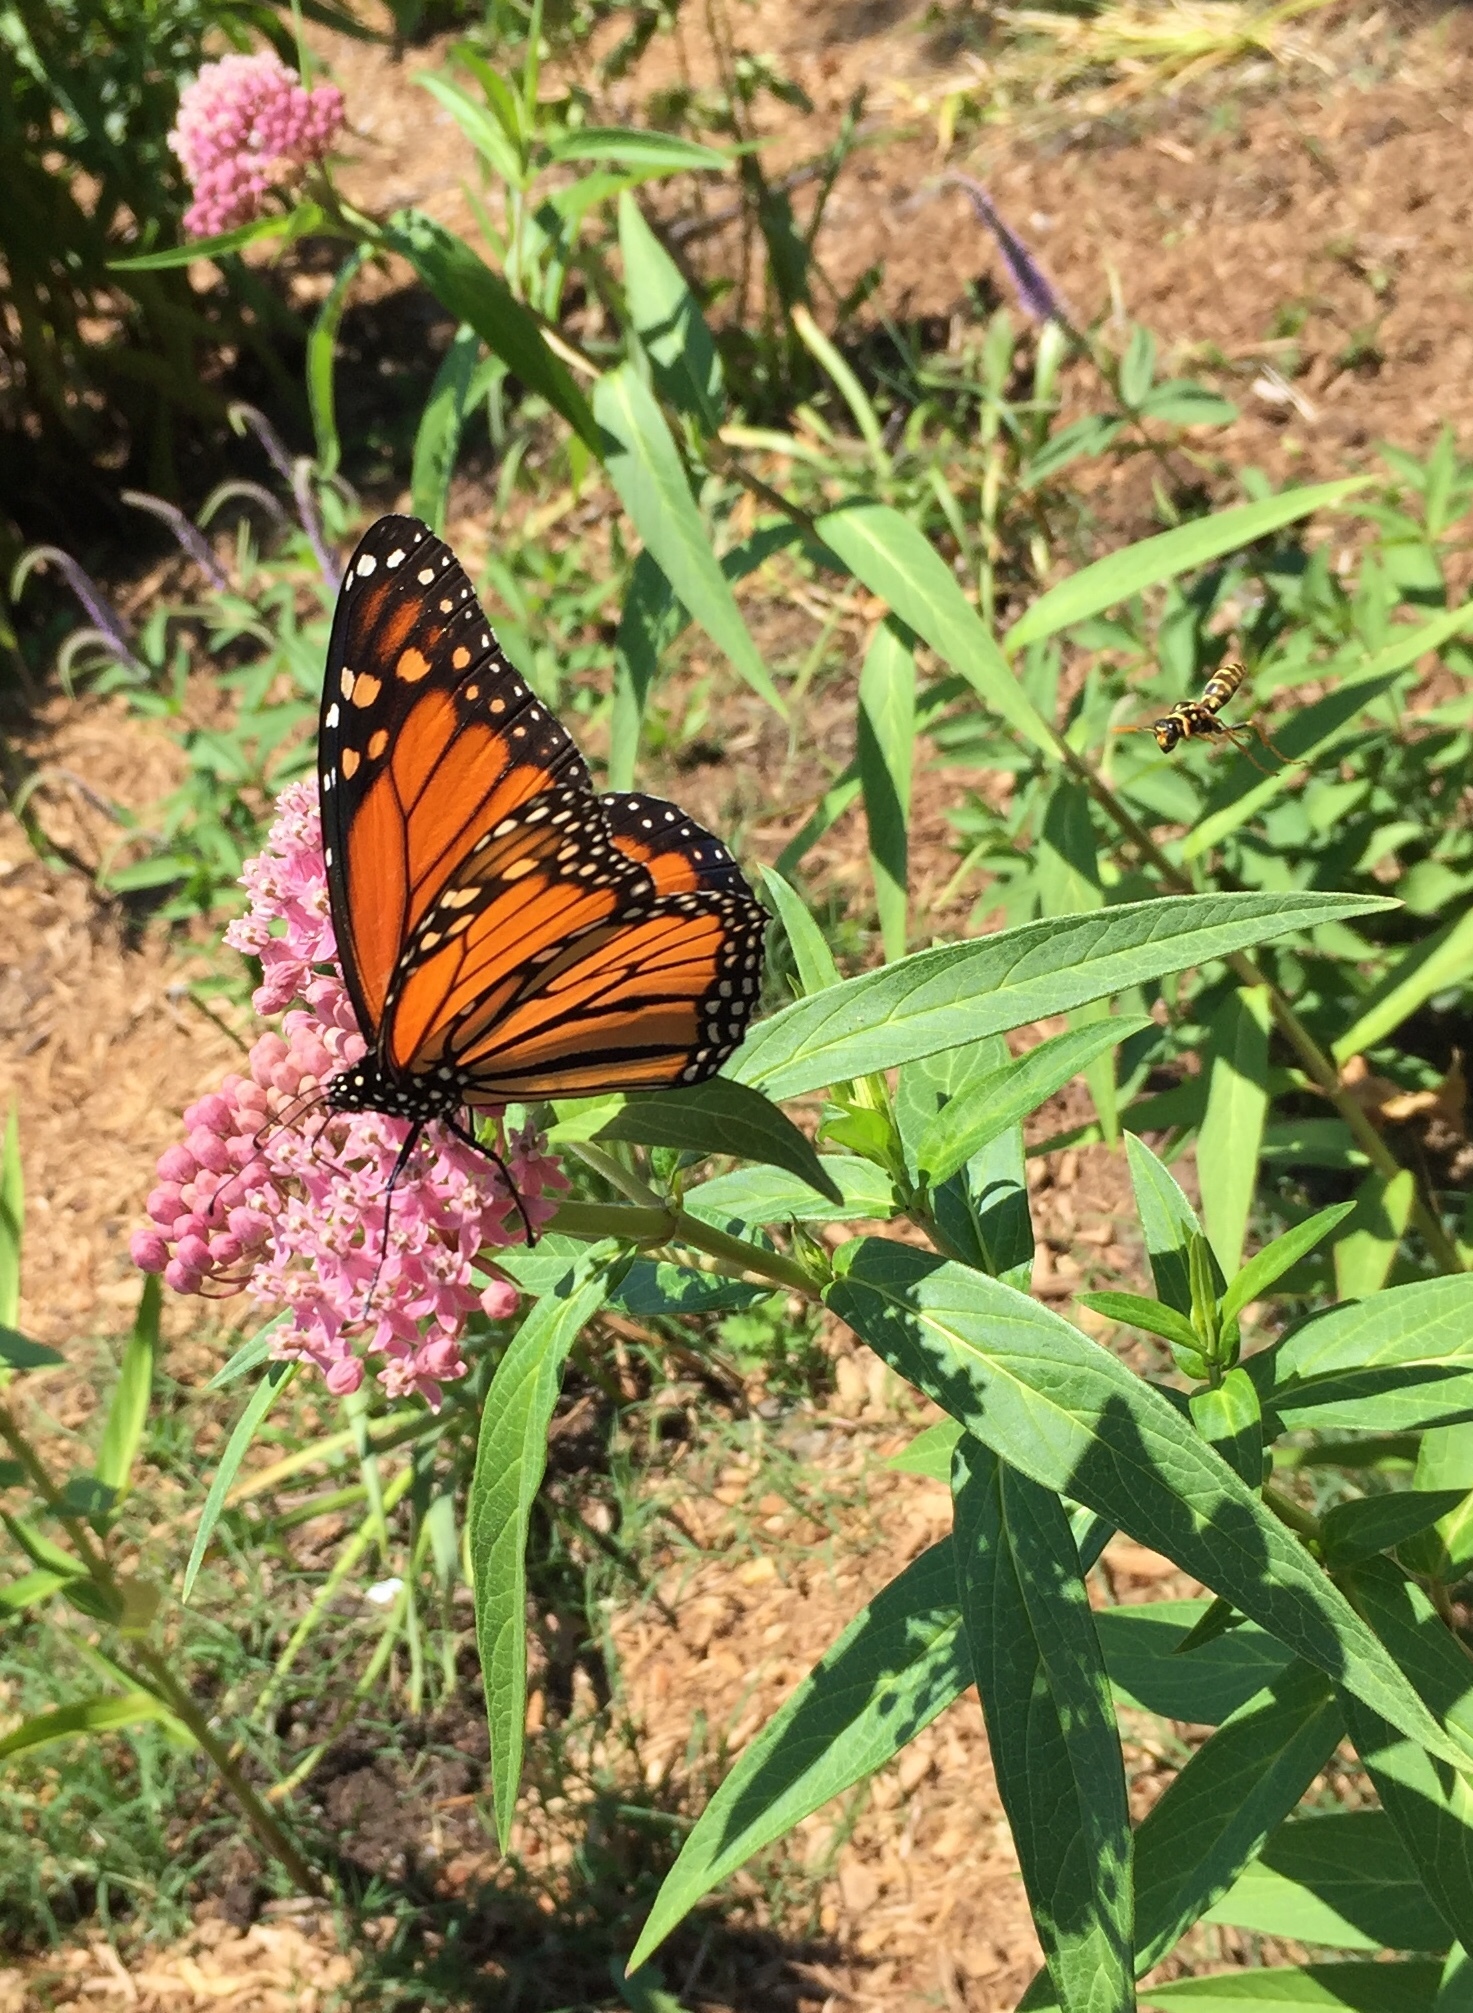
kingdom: Animalia
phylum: Arthropoda
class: Insecta
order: Lepidoptera
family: Nymphalidae
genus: Danaus
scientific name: Danaus plexippus
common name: Monarch
